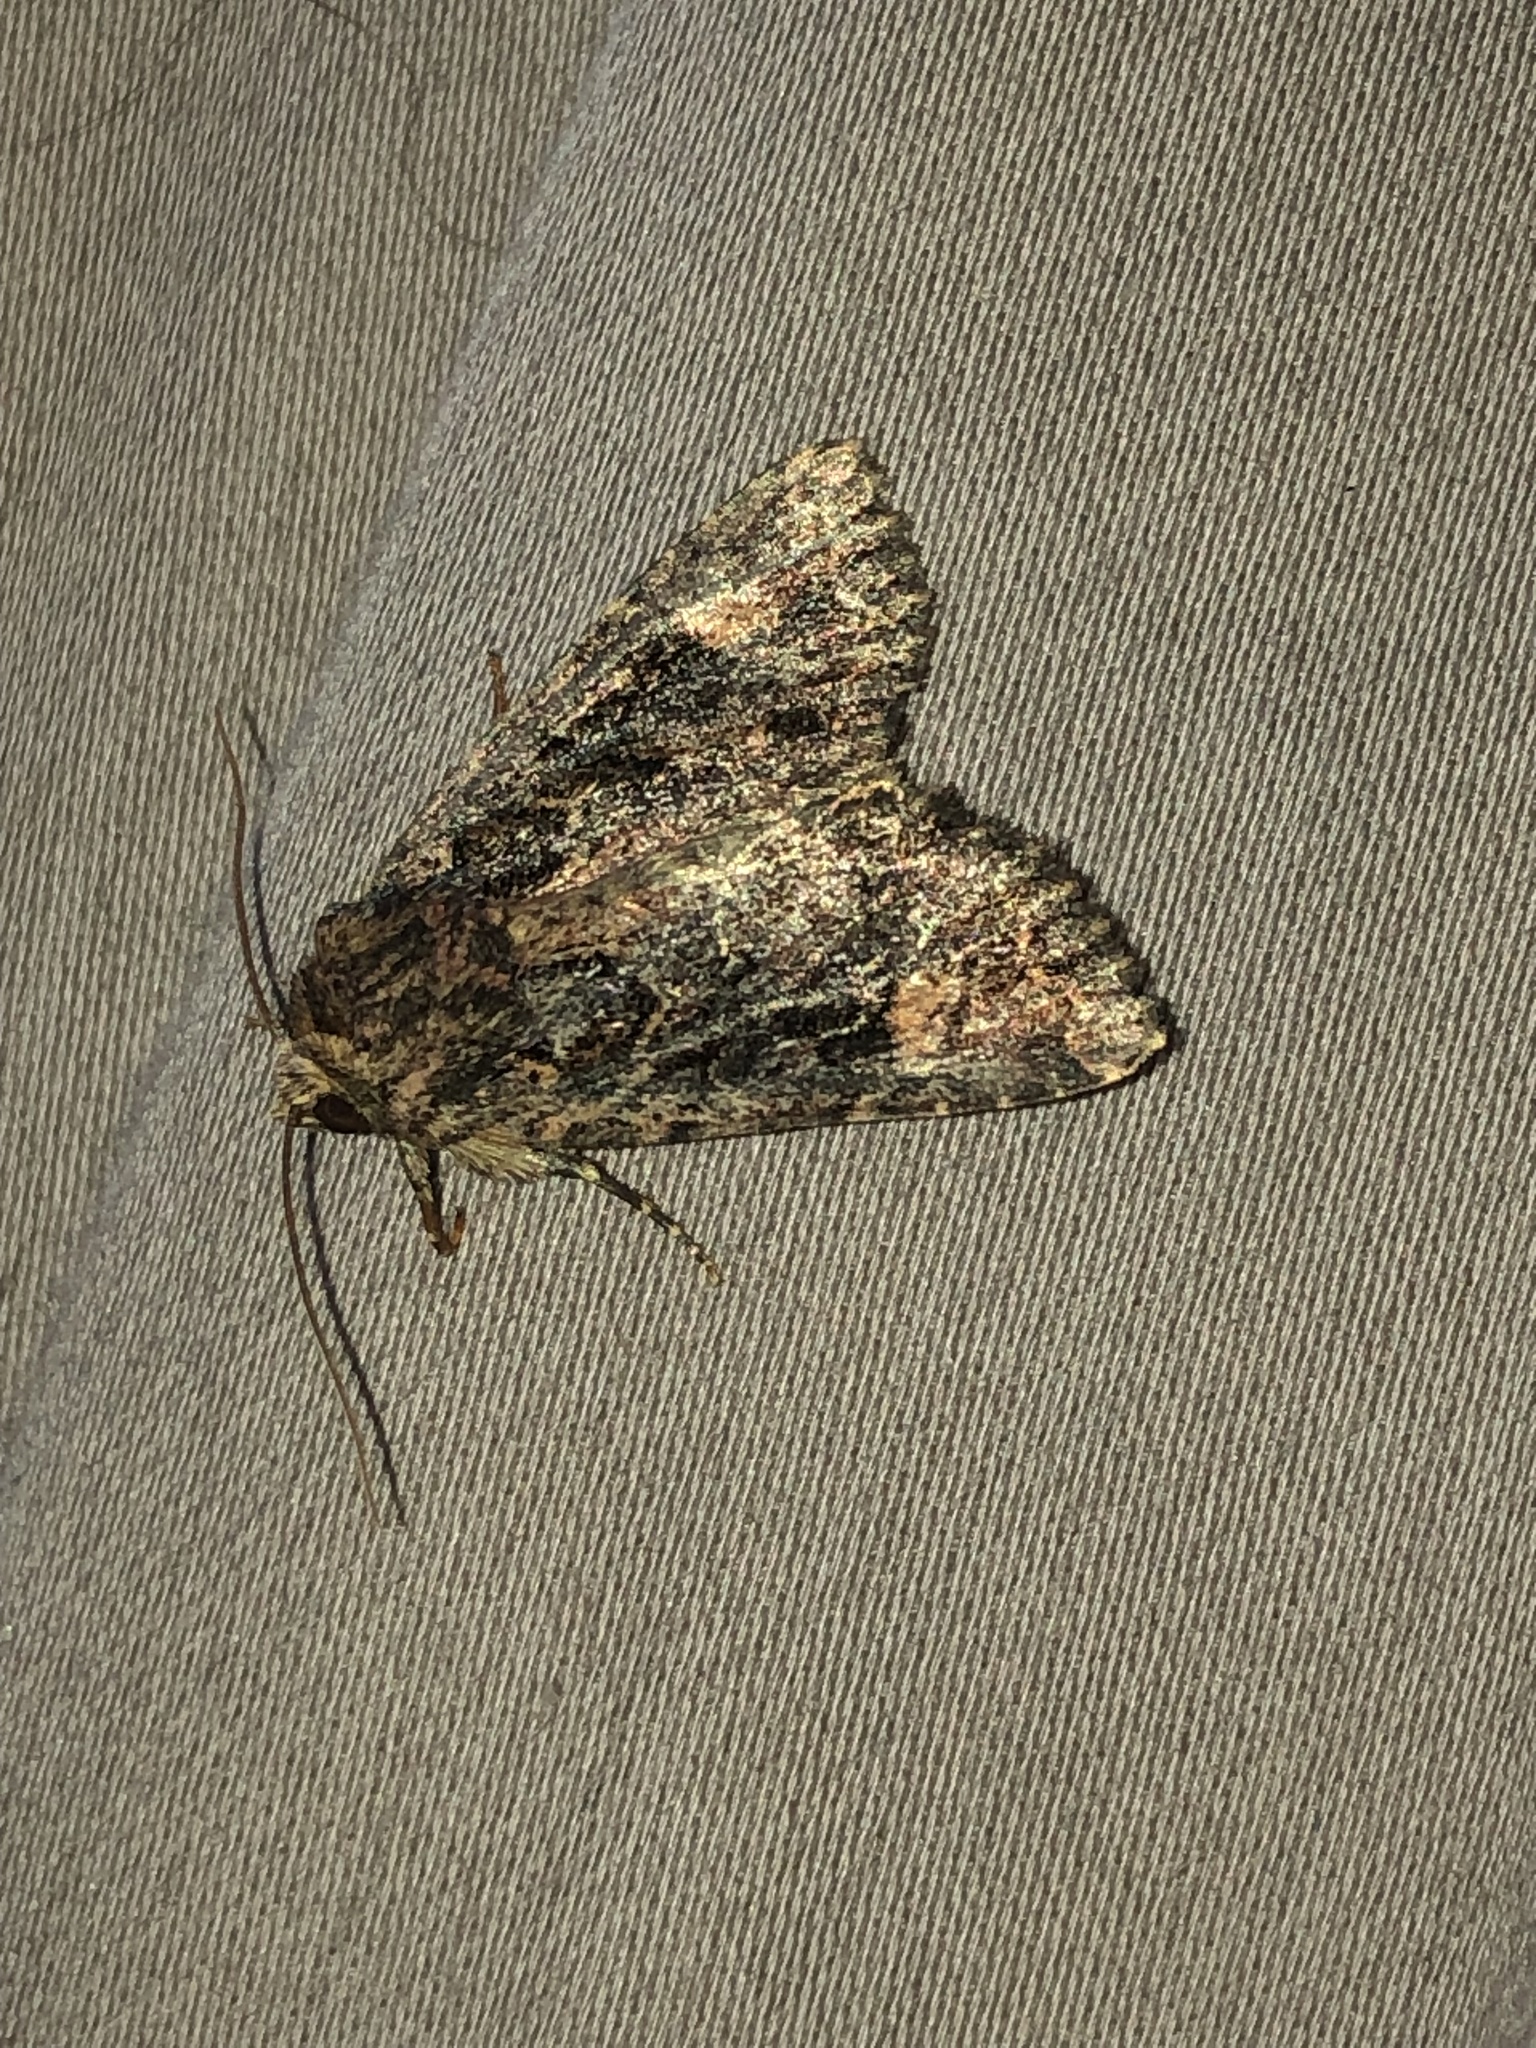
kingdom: Animalia
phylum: Arthropoda
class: Insecta
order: Lepidoptera
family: Noctuidae
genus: Aseptis
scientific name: Aseptis binotata
